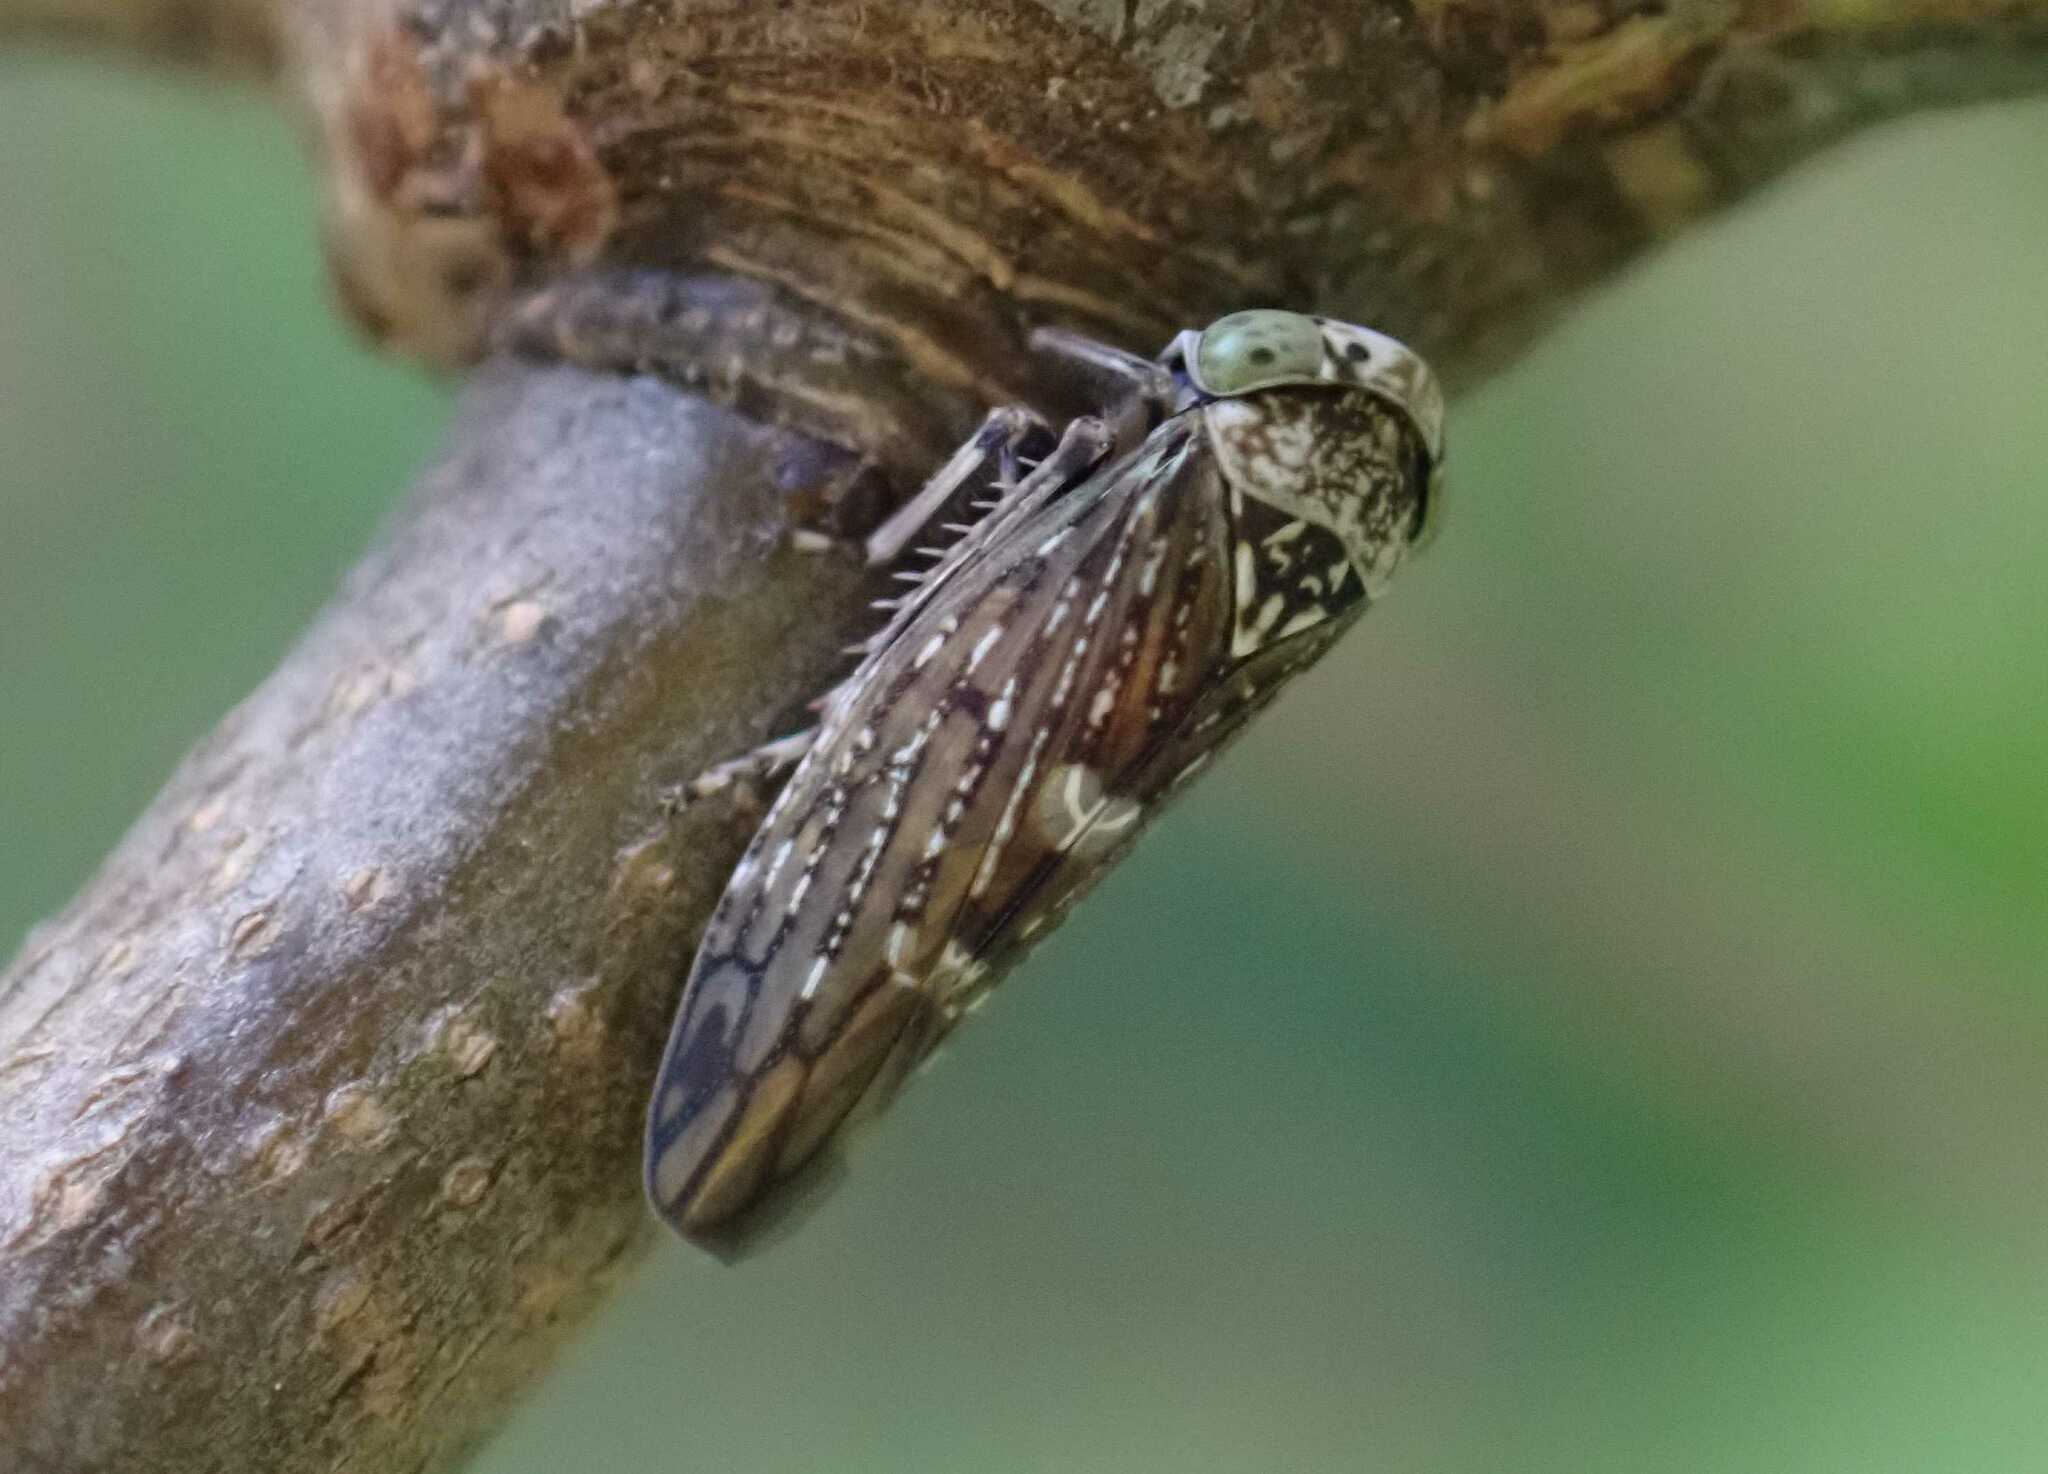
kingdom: Animalia
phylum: Arthropoda
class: Insecta
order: Hemiptera
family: Cicadellidae
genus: Acericerus
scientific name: Acericerus heydenii
